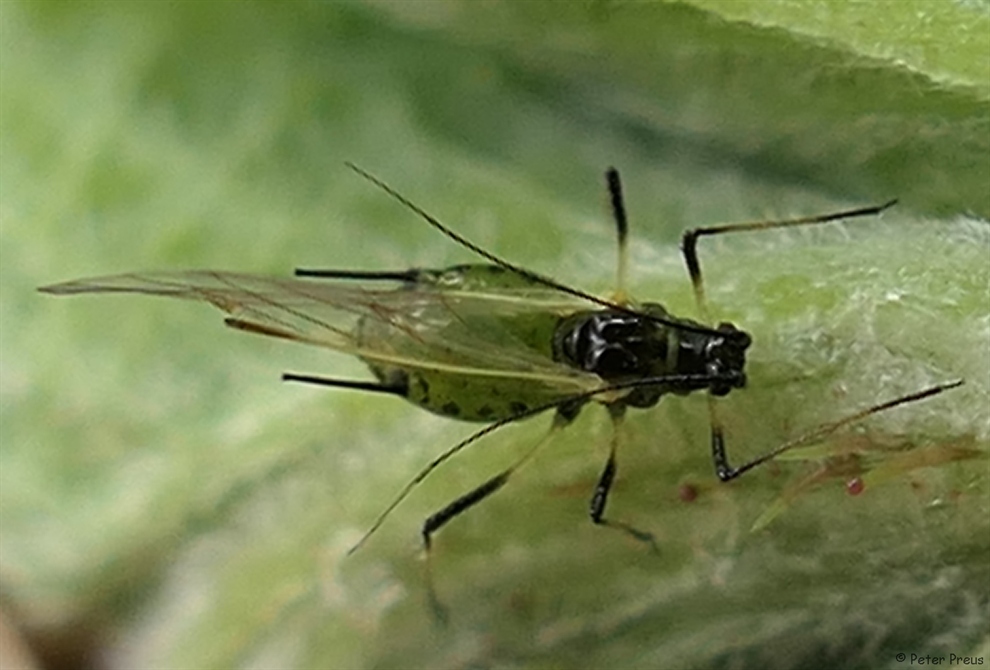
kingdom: Animalia
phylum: Arthropoda
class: Insecta
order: Hemiptera
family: Aphididae
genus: Macrosiphum
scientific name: Macrosiphum rosae
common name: Rose aphid
